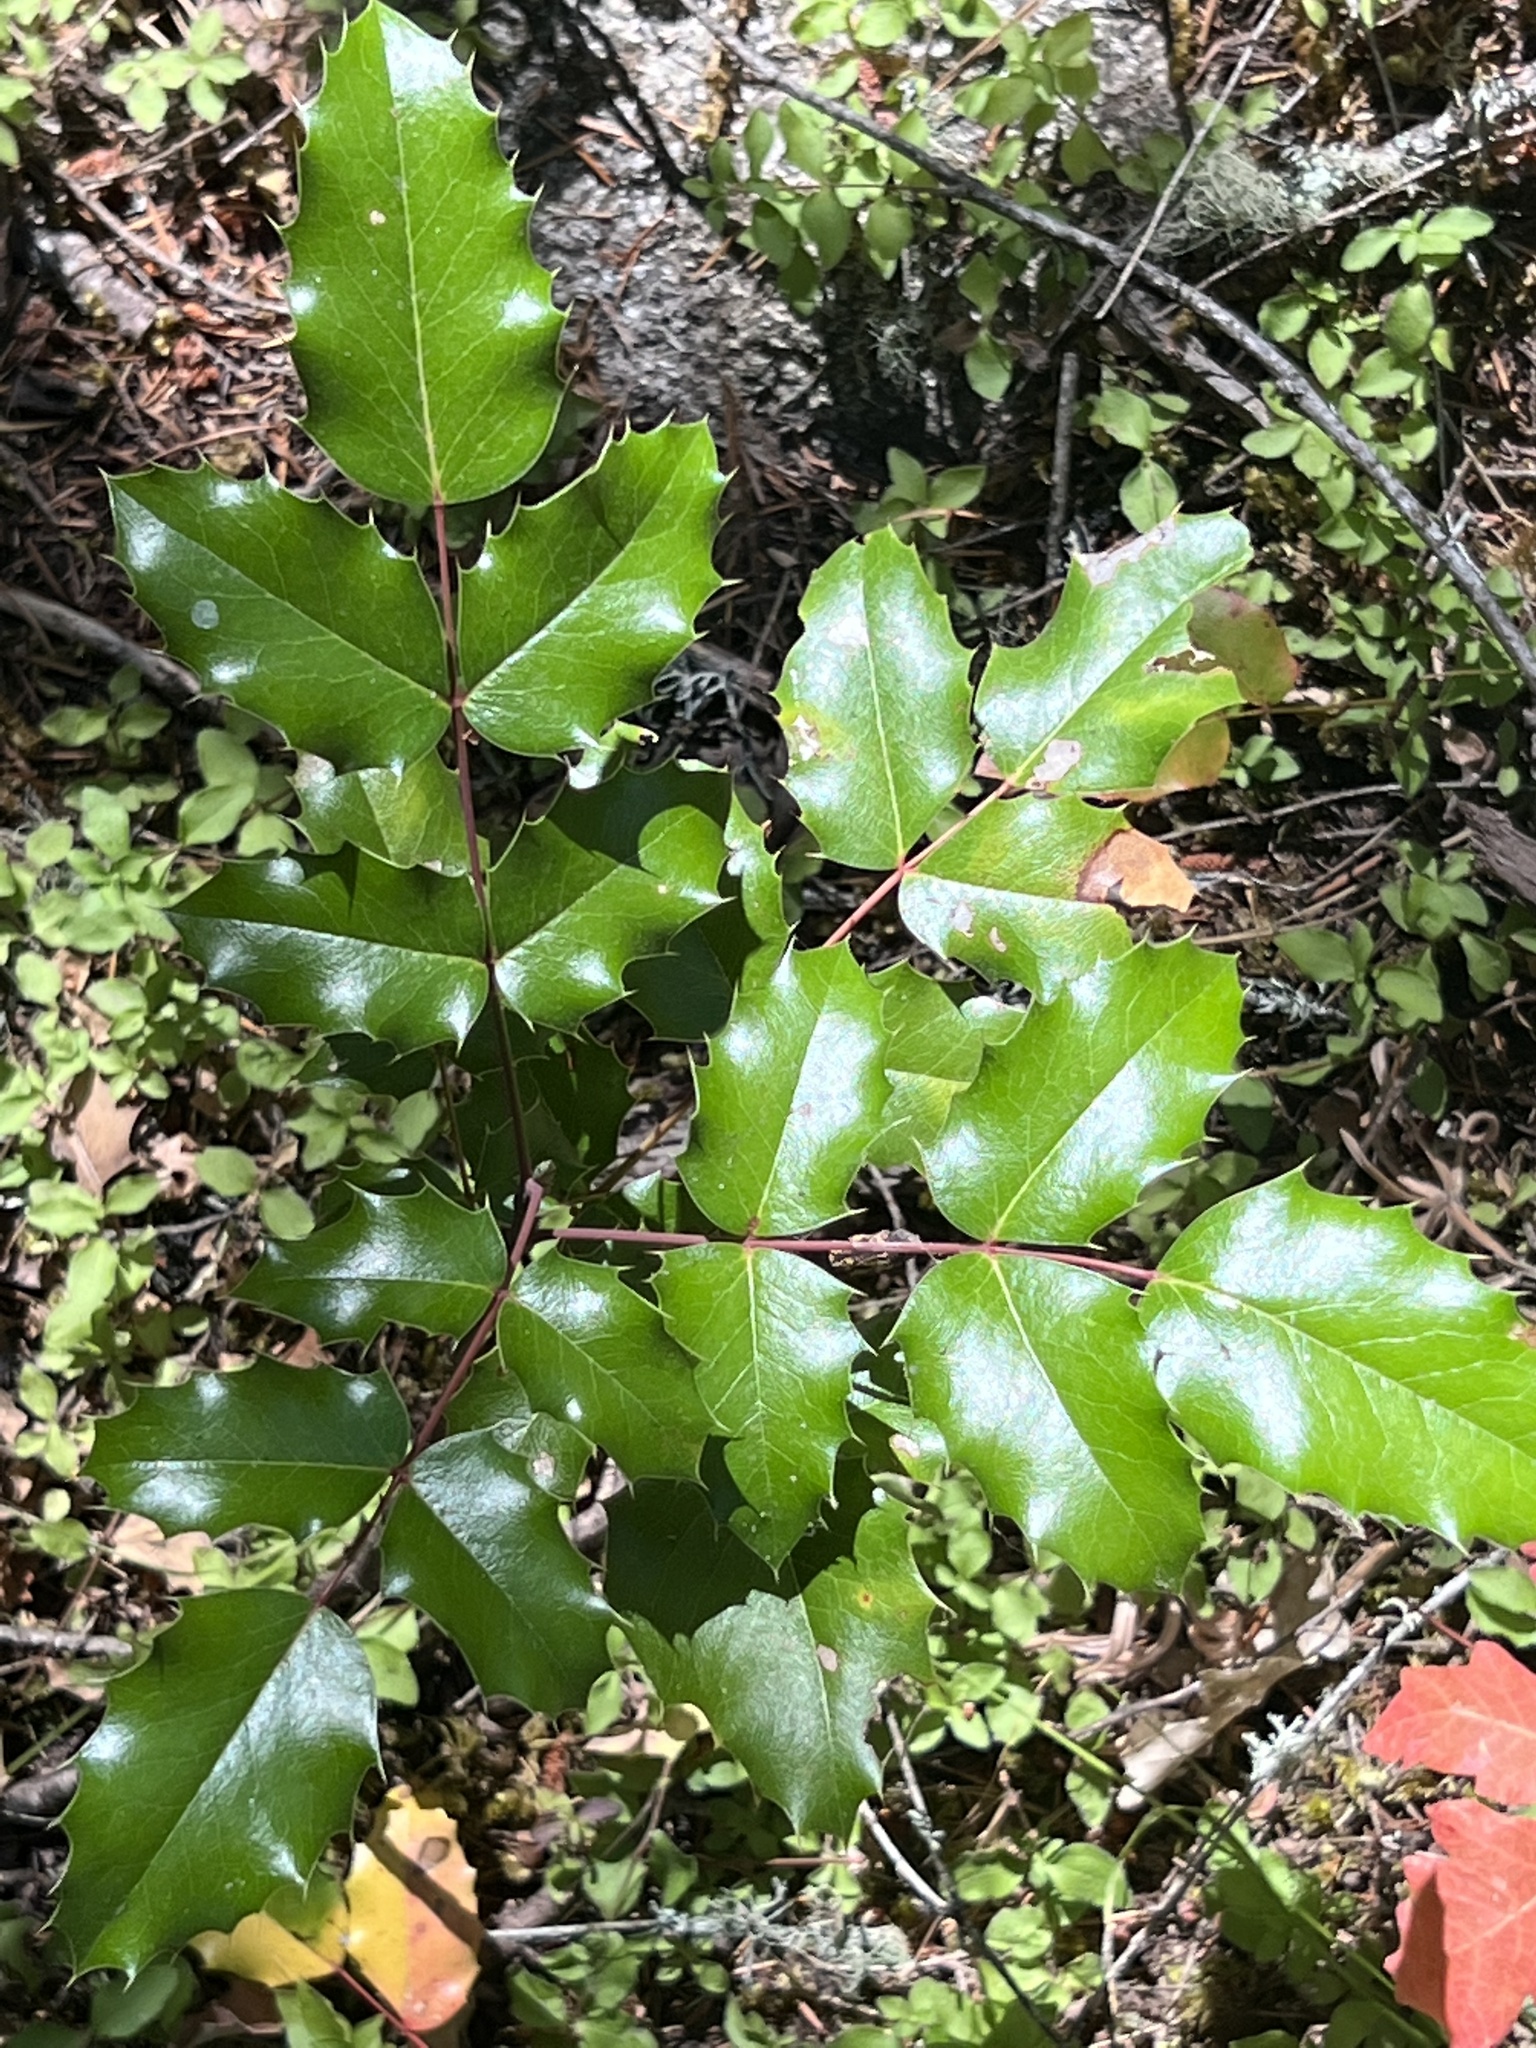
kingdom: Plantae
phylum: Tracheophyta
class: Magnoliopsida
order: Ranunculales
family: Berberidaceae
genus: Mahonia
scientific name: Mahonia aquifolium
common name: Oregon-grape
